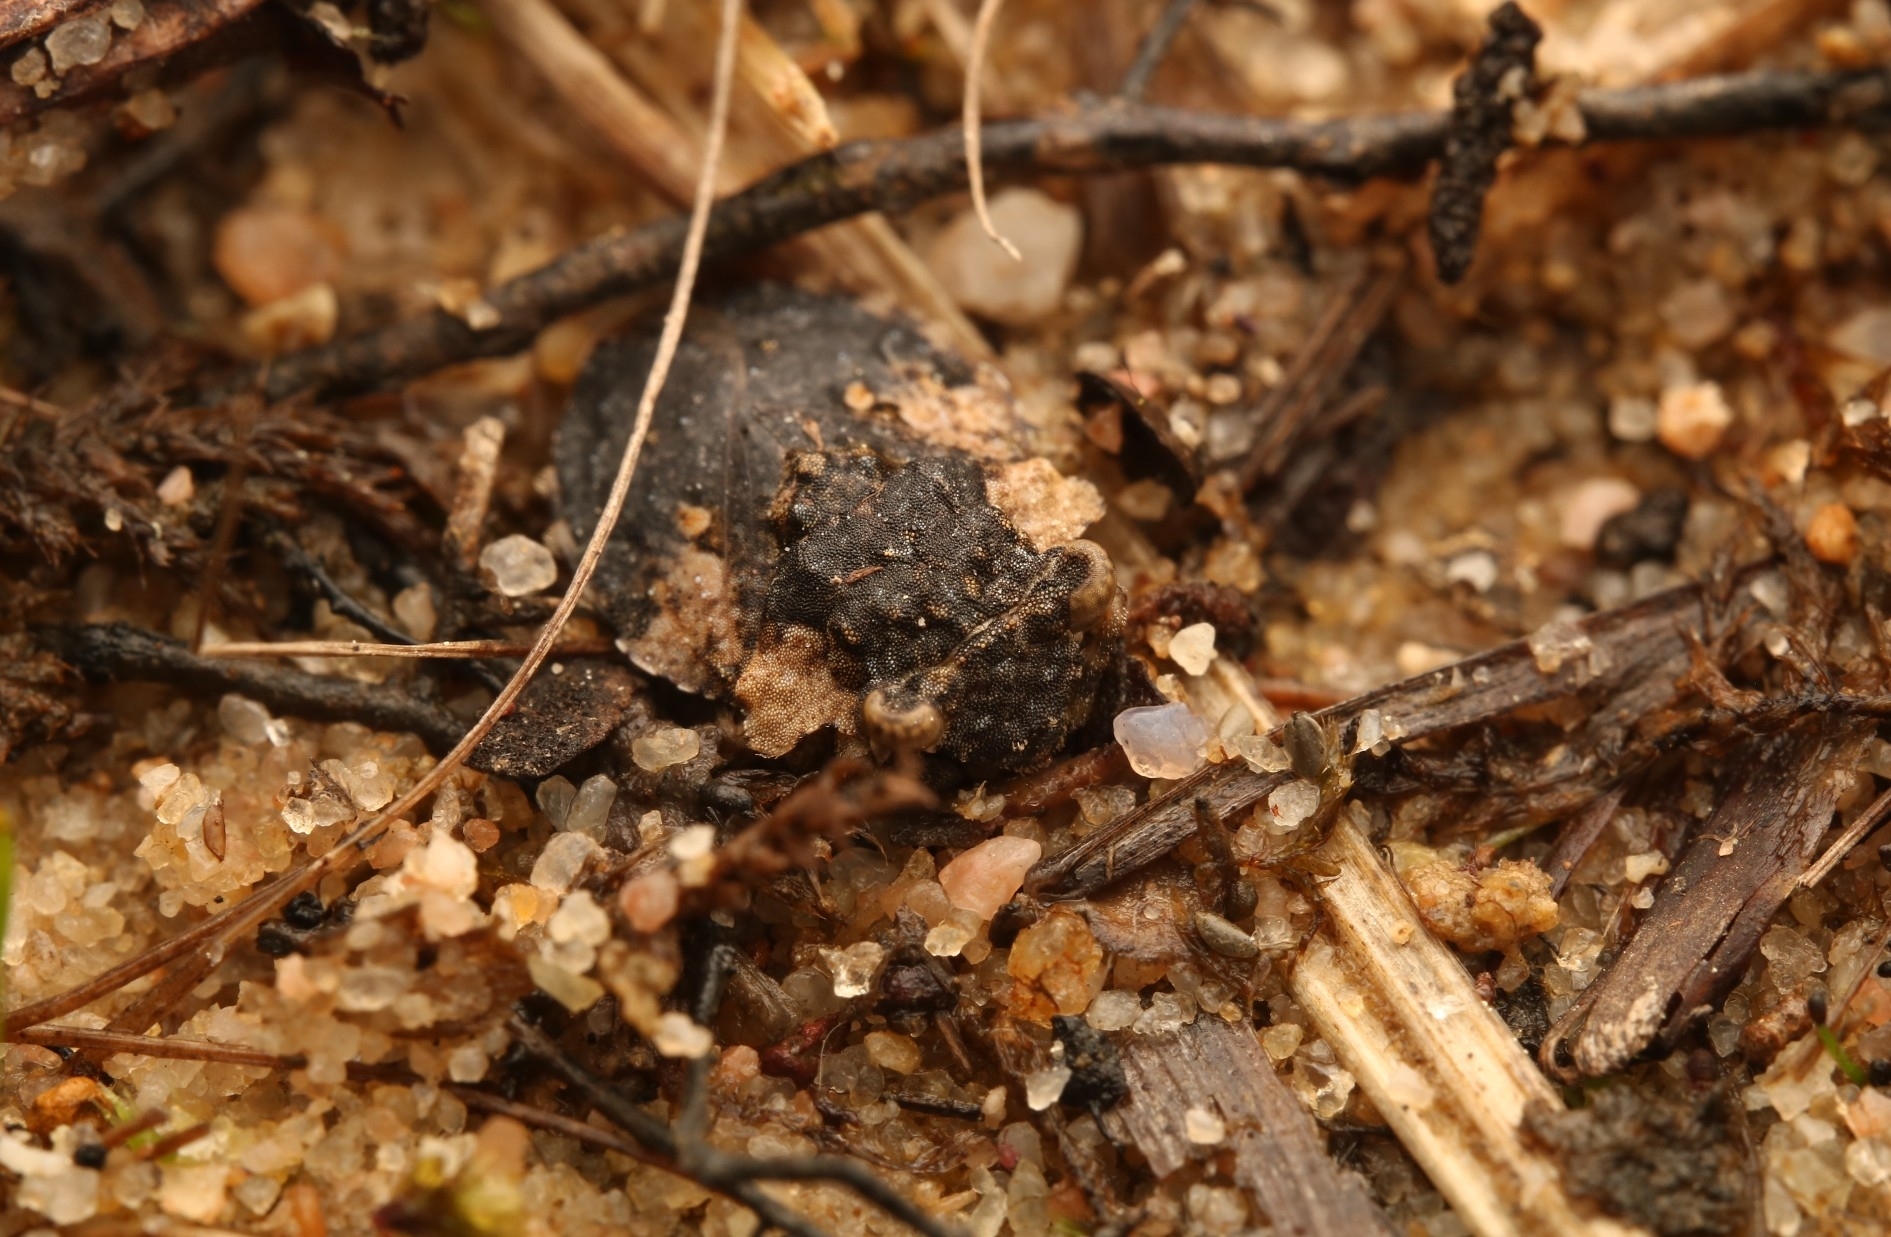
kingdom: Animalia
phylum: Arthropoda
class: Insecta
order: Hemiptera
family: Gelastocoridae
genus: Gelastocoris
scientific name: Gelastocoris oculatus
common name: Toad bug
